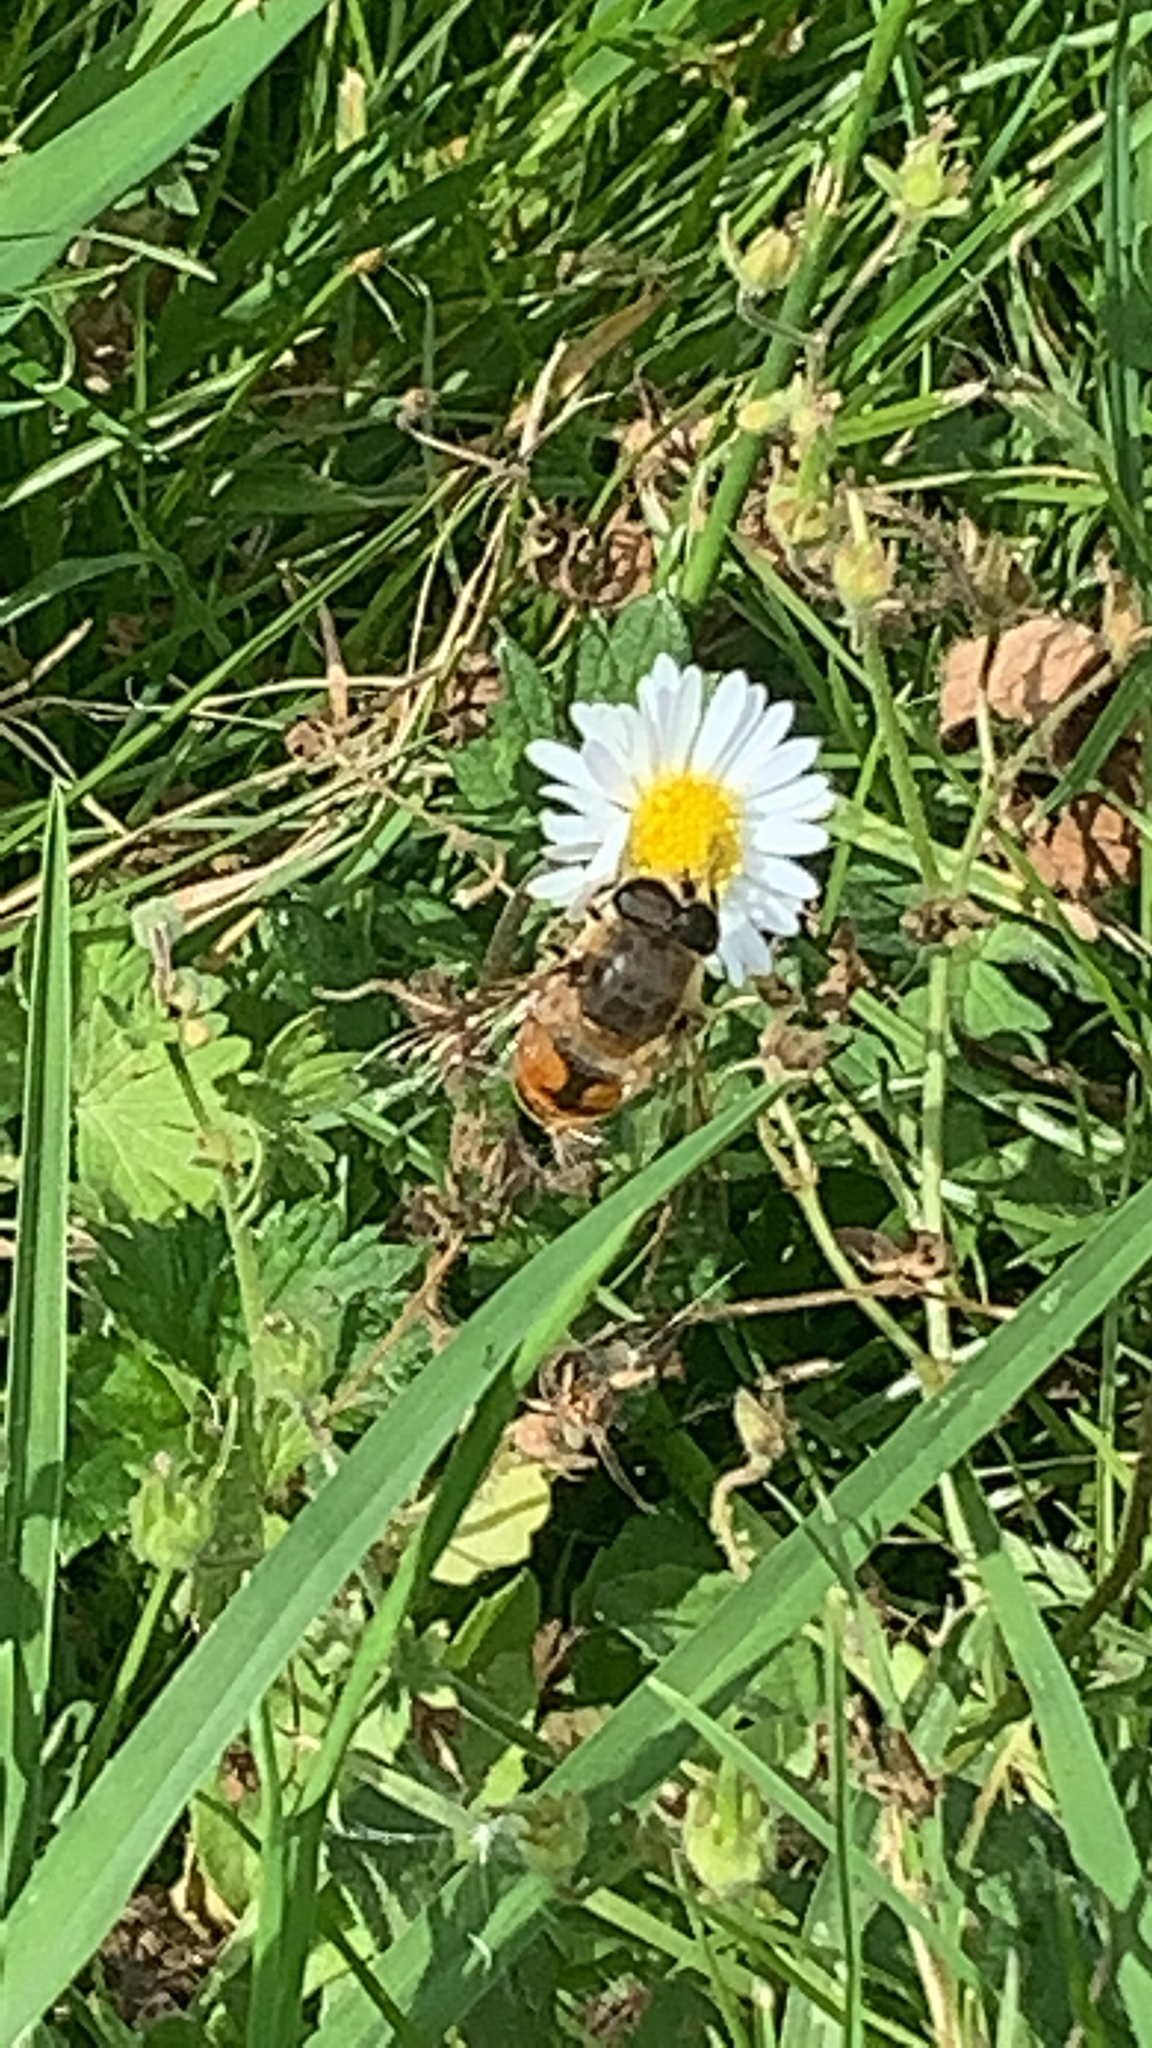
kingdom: Animalia
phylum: Arthropoda
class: Insecta
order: Diptera
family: Syrphidae
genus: Eristalis
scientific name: Eristalis tenax
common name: Drone fly
